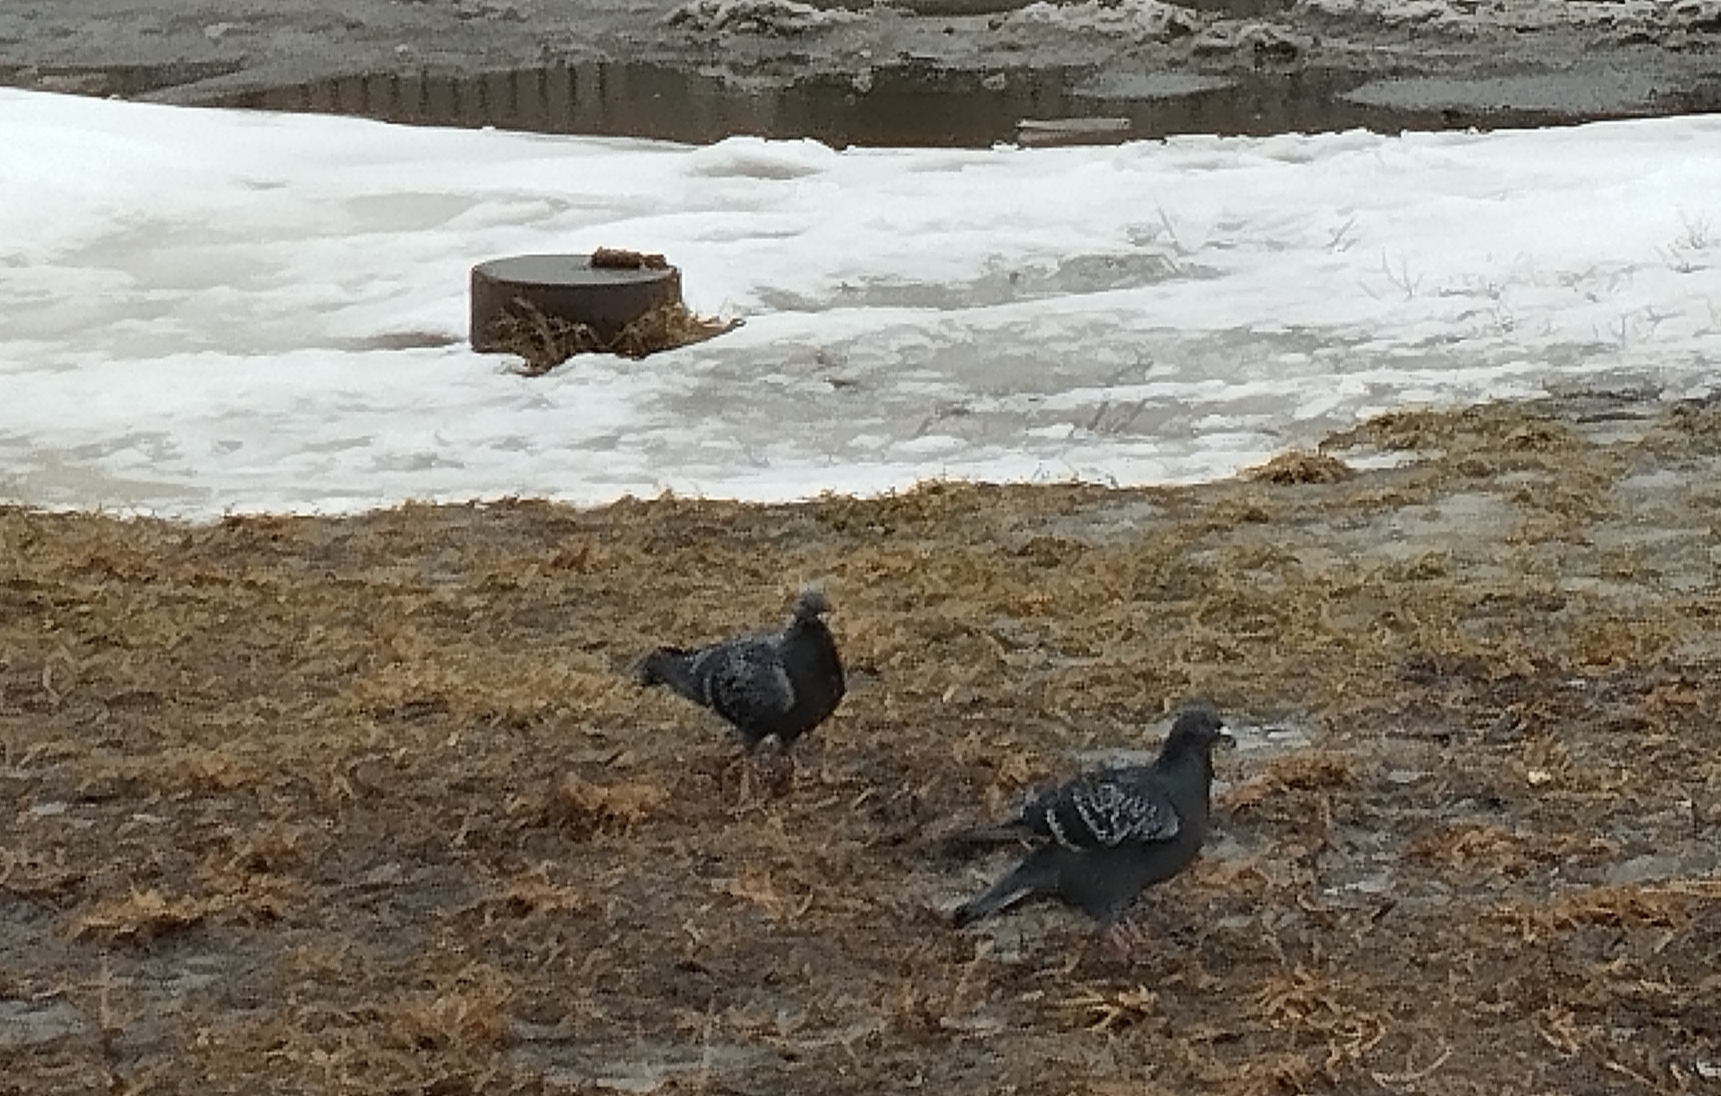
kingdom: Animalia
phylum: Chordata
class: Aves
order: Columbiformes
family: Columbidae
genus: Columba
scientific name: Columba livia
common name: Rock pigeon
